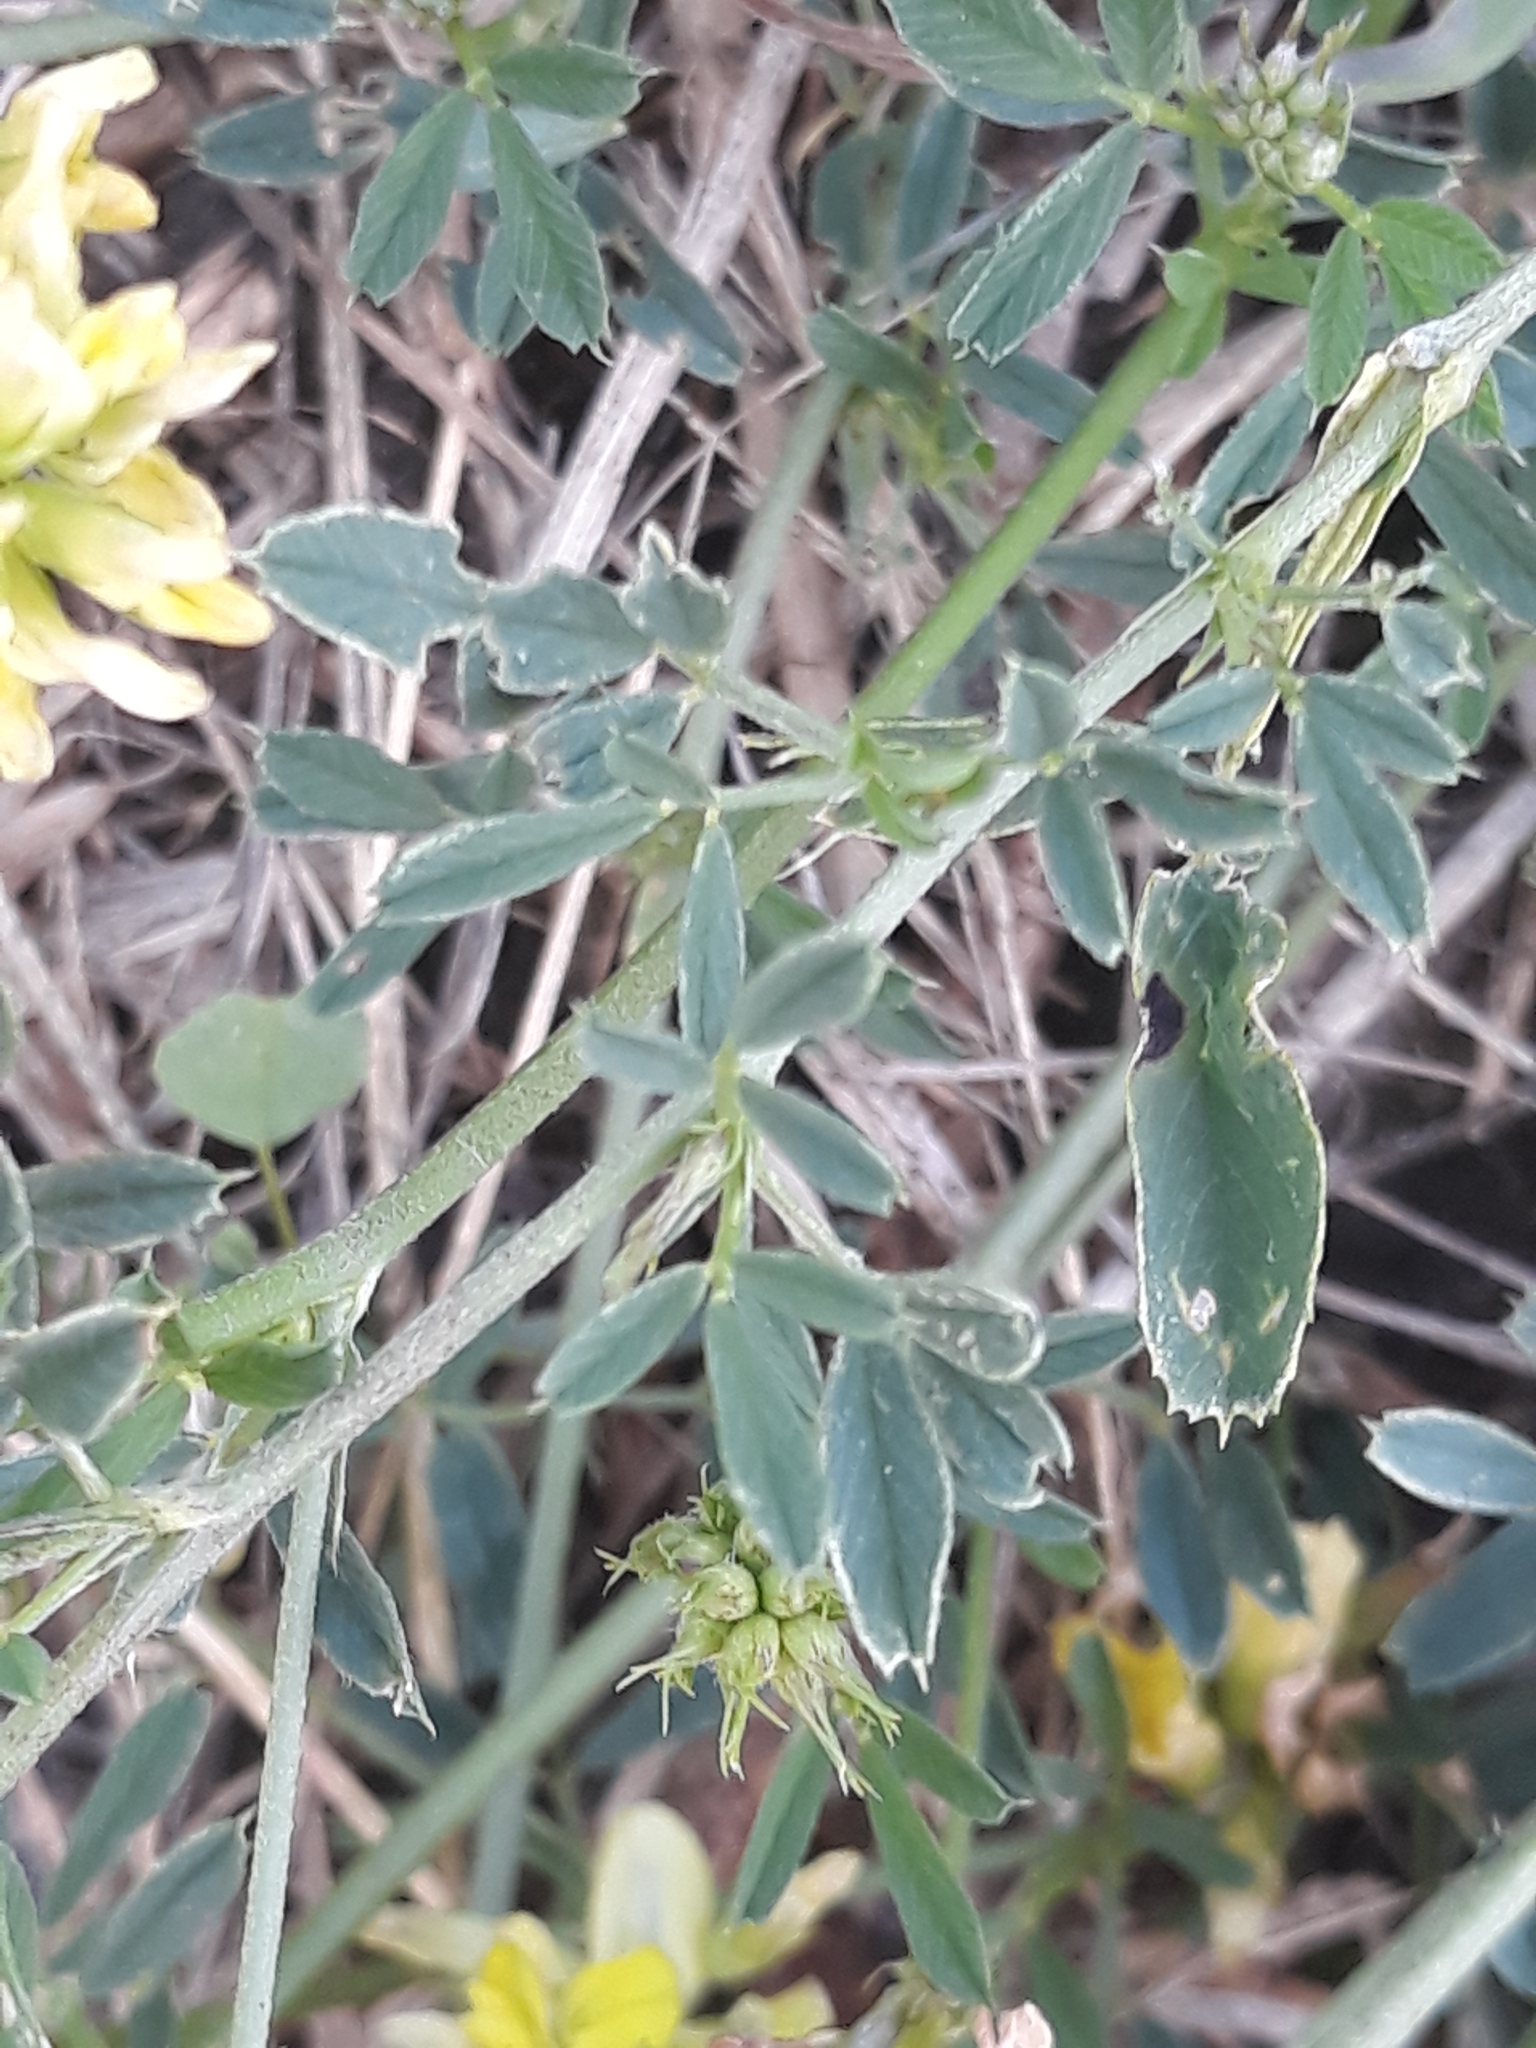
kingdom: Plantae
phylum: Tracheophyta
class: Magnoliopsida
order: Fabales
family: Fabaceae
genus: Medicago
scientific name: Medicago varia
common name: Sand lucerne
